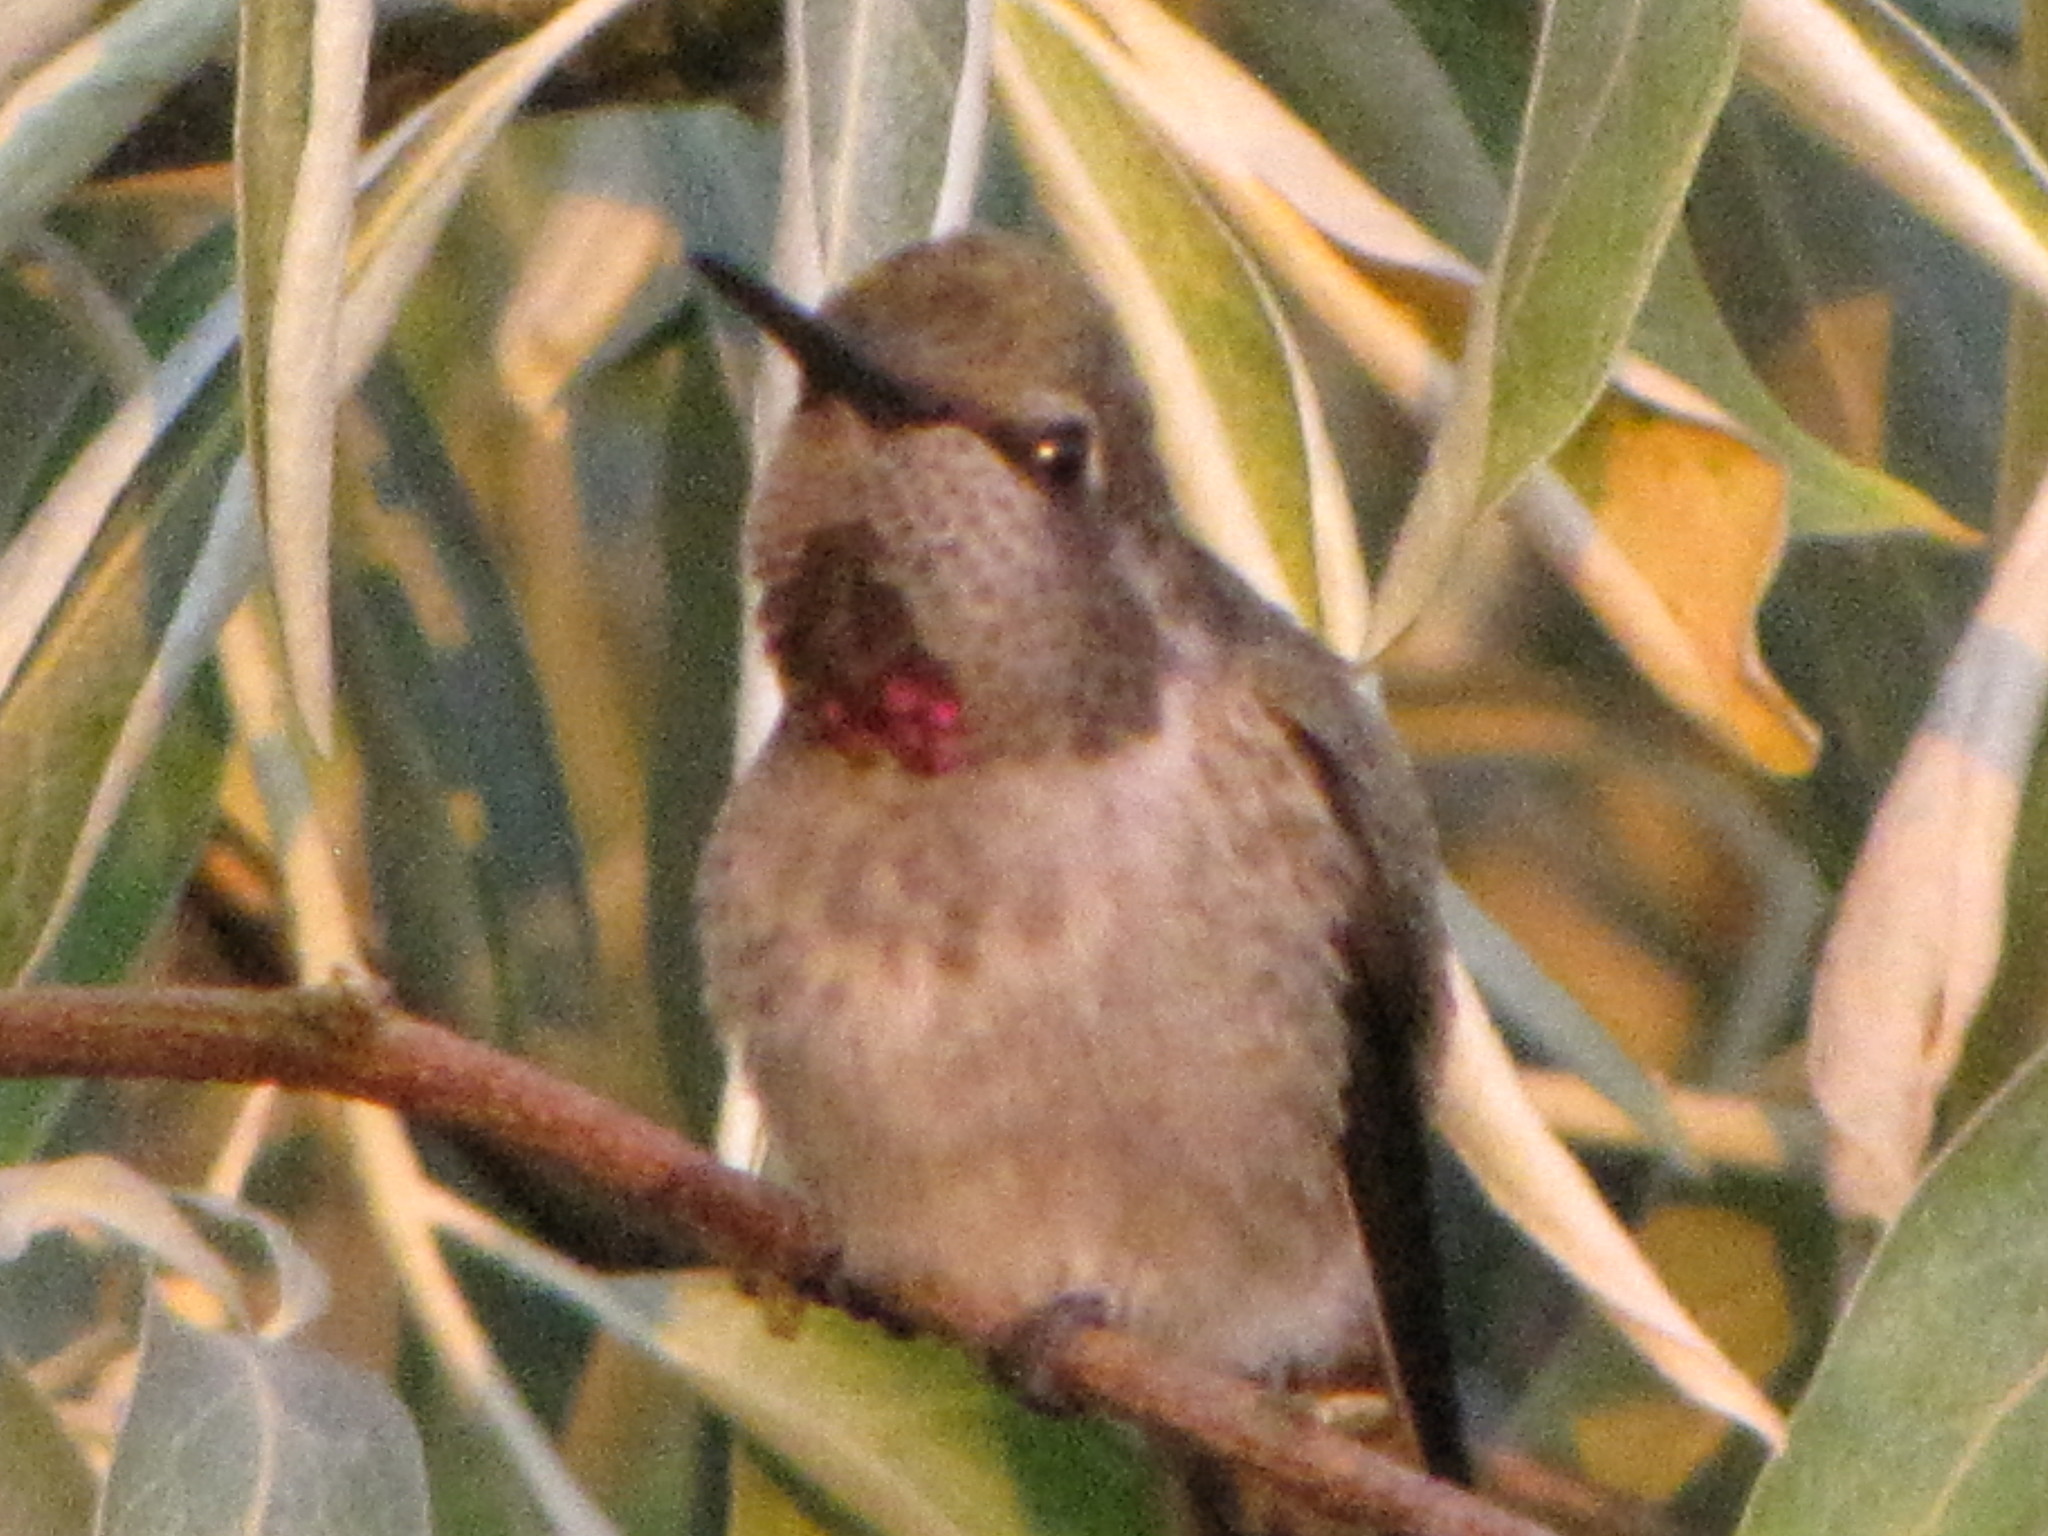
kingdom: Animalia
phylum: Chordata
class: Aves
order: Apodiformes
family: Trochilidae
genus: Calypte
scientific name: Calypte anna
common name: Anna's hummingbird
